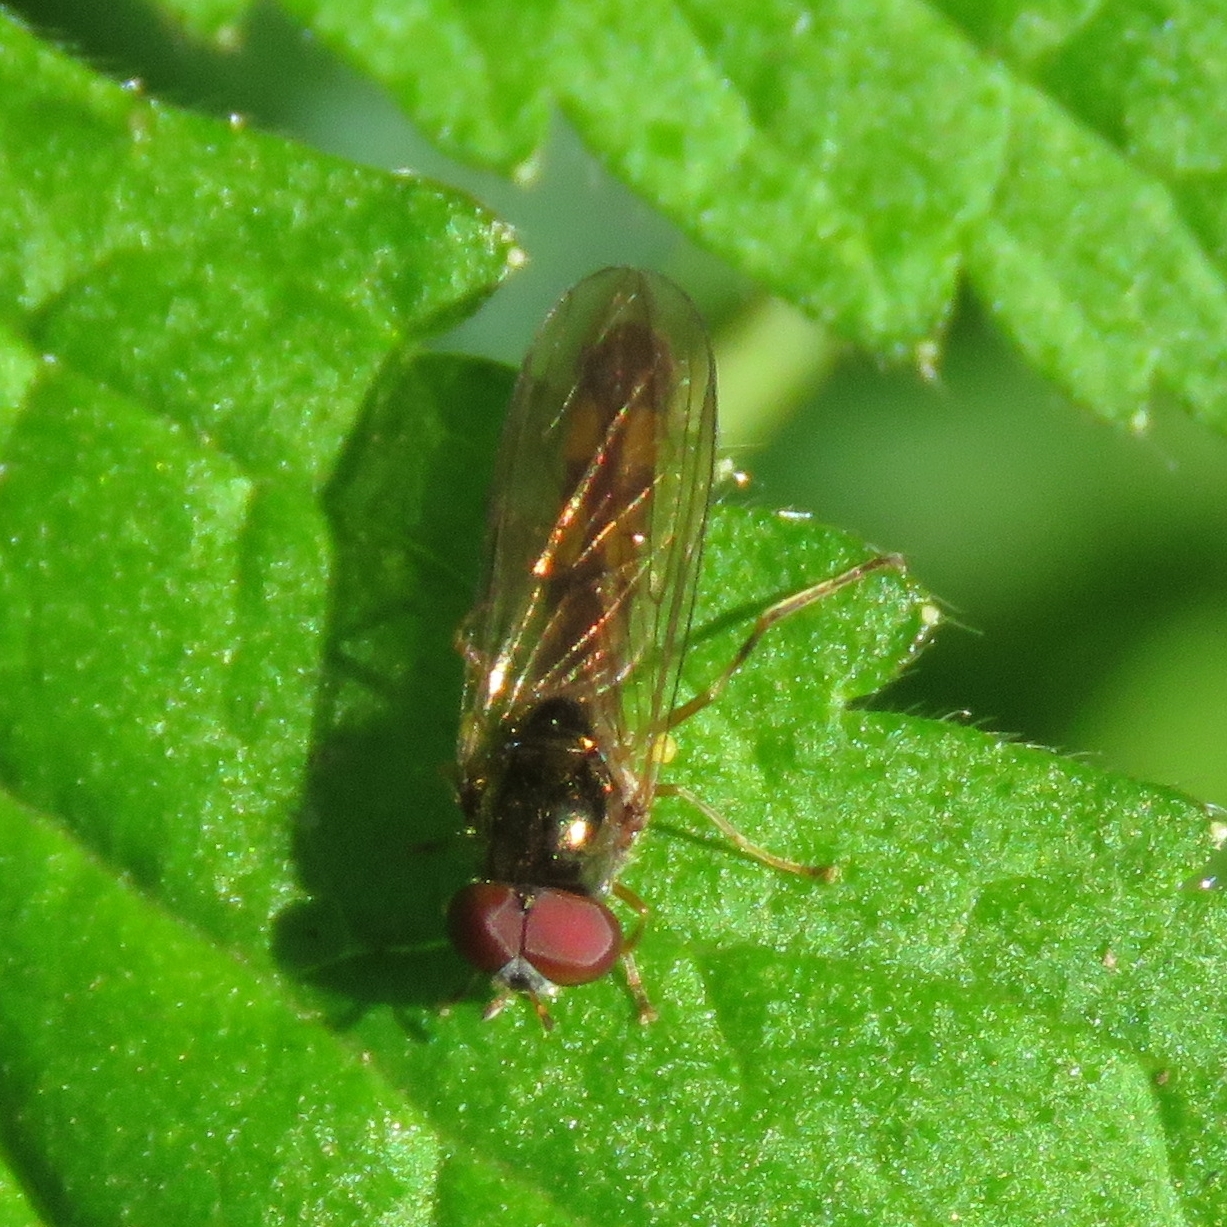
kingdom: Animalia
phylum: Arthropoda
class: Insecta
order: Diptera
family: Syrphidae
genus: Melanostoma
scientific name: Melanostoma scalare
